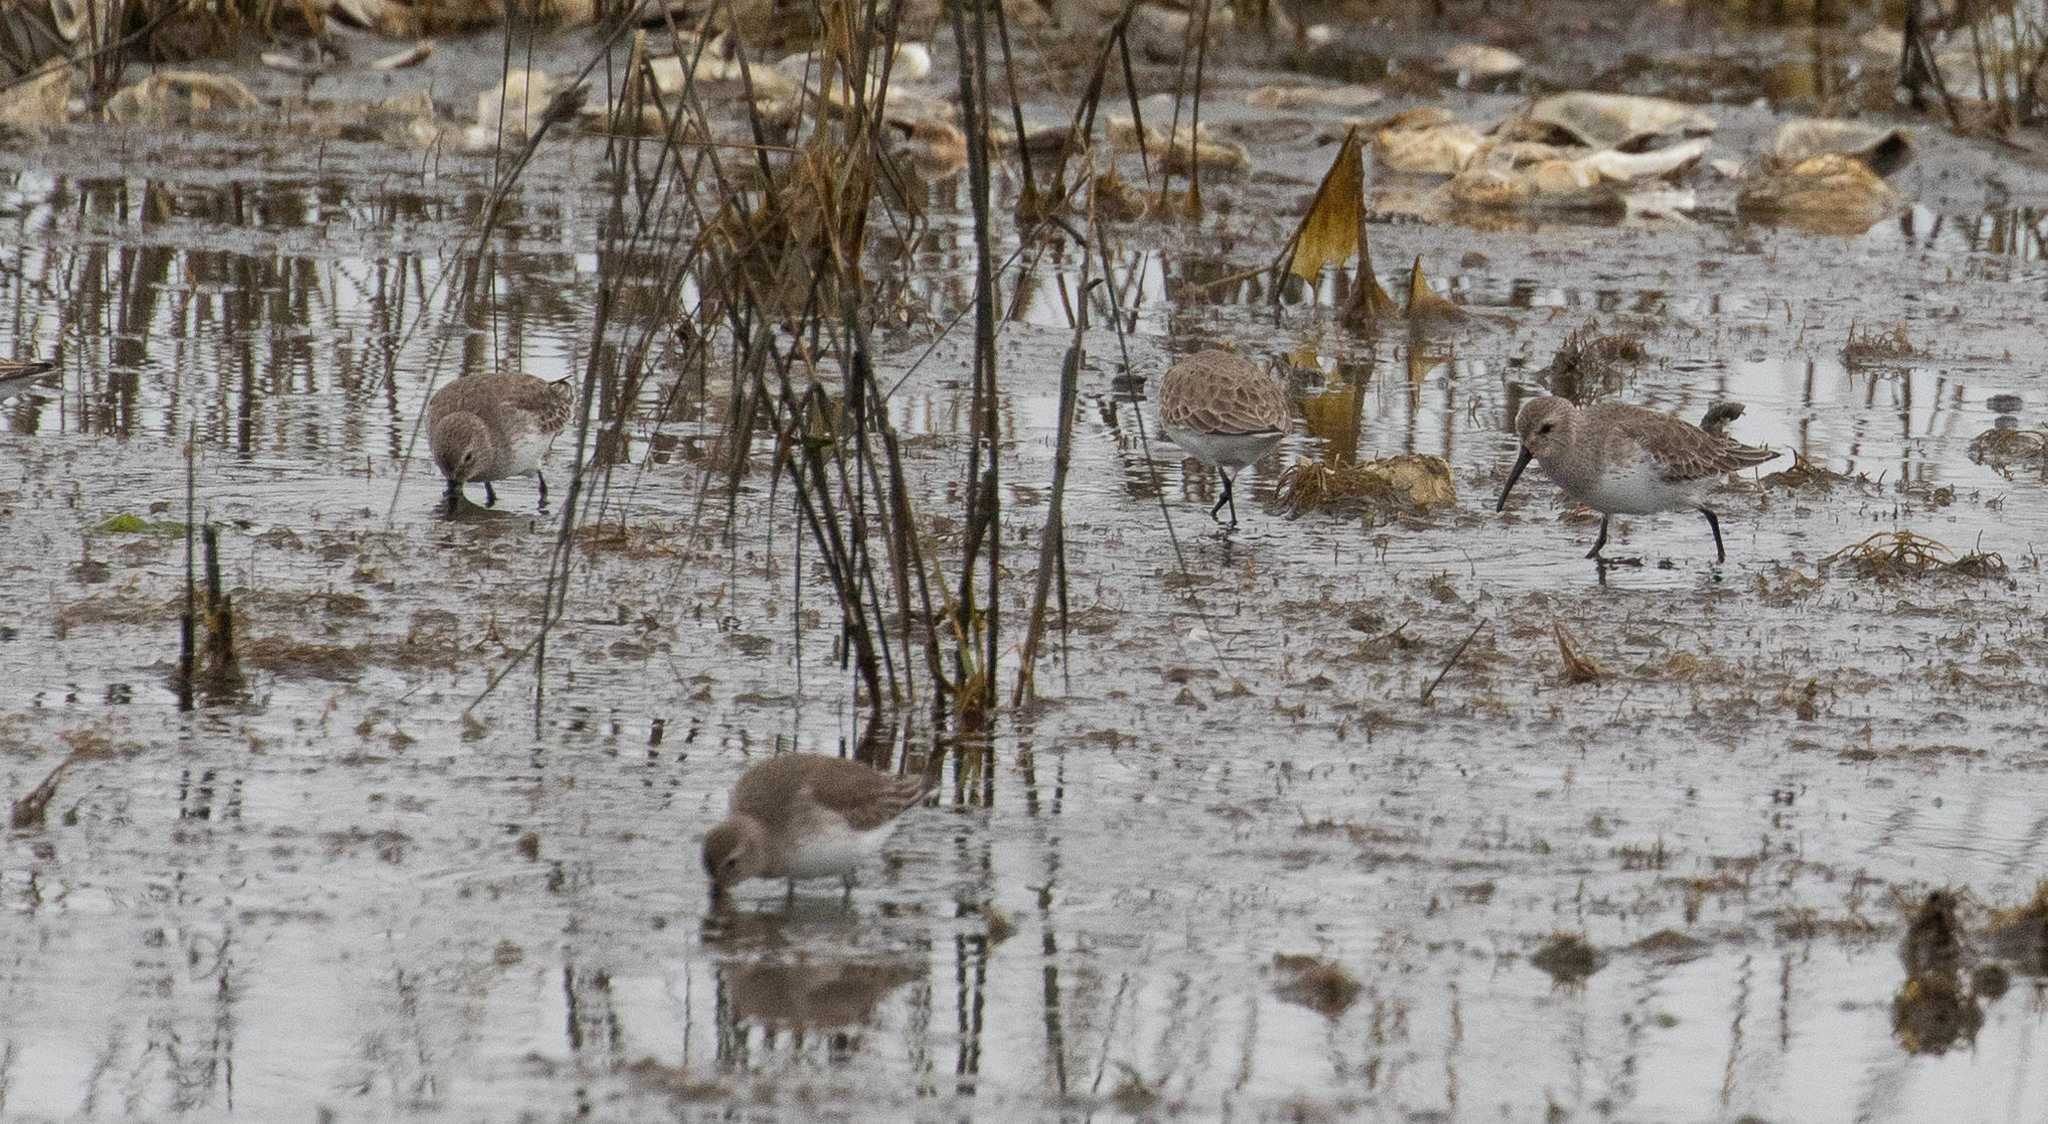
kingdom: Animalia
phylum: Chordata
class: Aves
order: Charadriiformes
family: Scolopacidae
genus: Calidris
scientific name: Calidris alpina
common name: Dunlin
